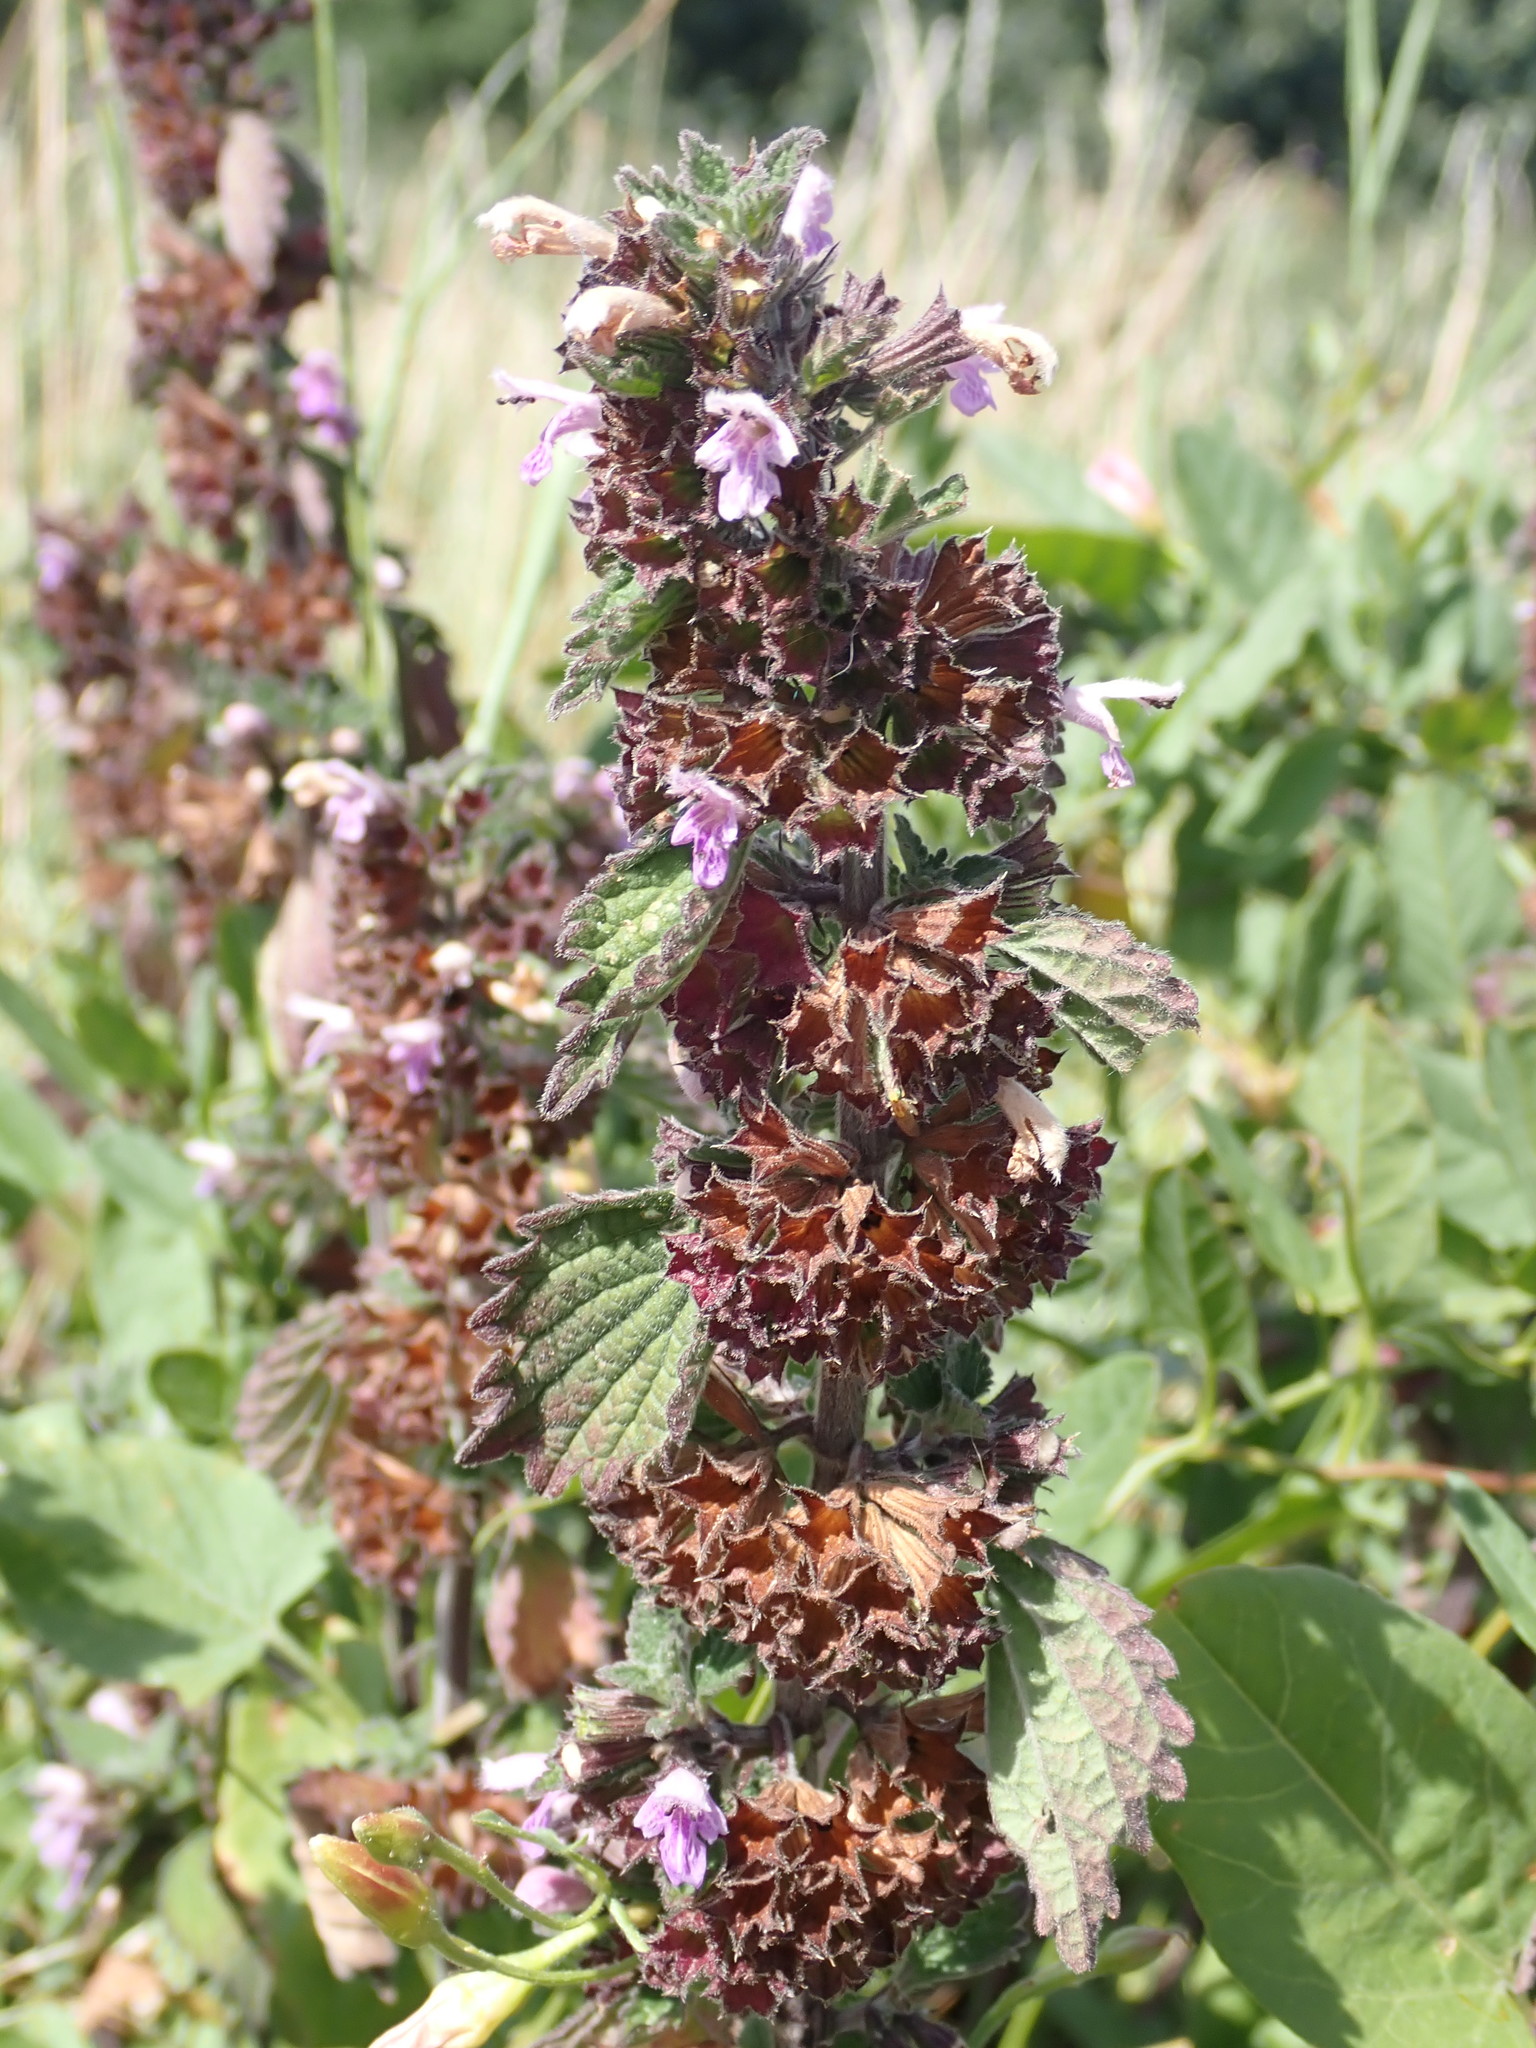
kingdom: Plantae
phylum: Tracheophyta
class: Magnoliopsida
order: Lamiales
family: Lamiaceae
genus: Ballota
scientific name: Ballota nigra
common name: Black horehound
